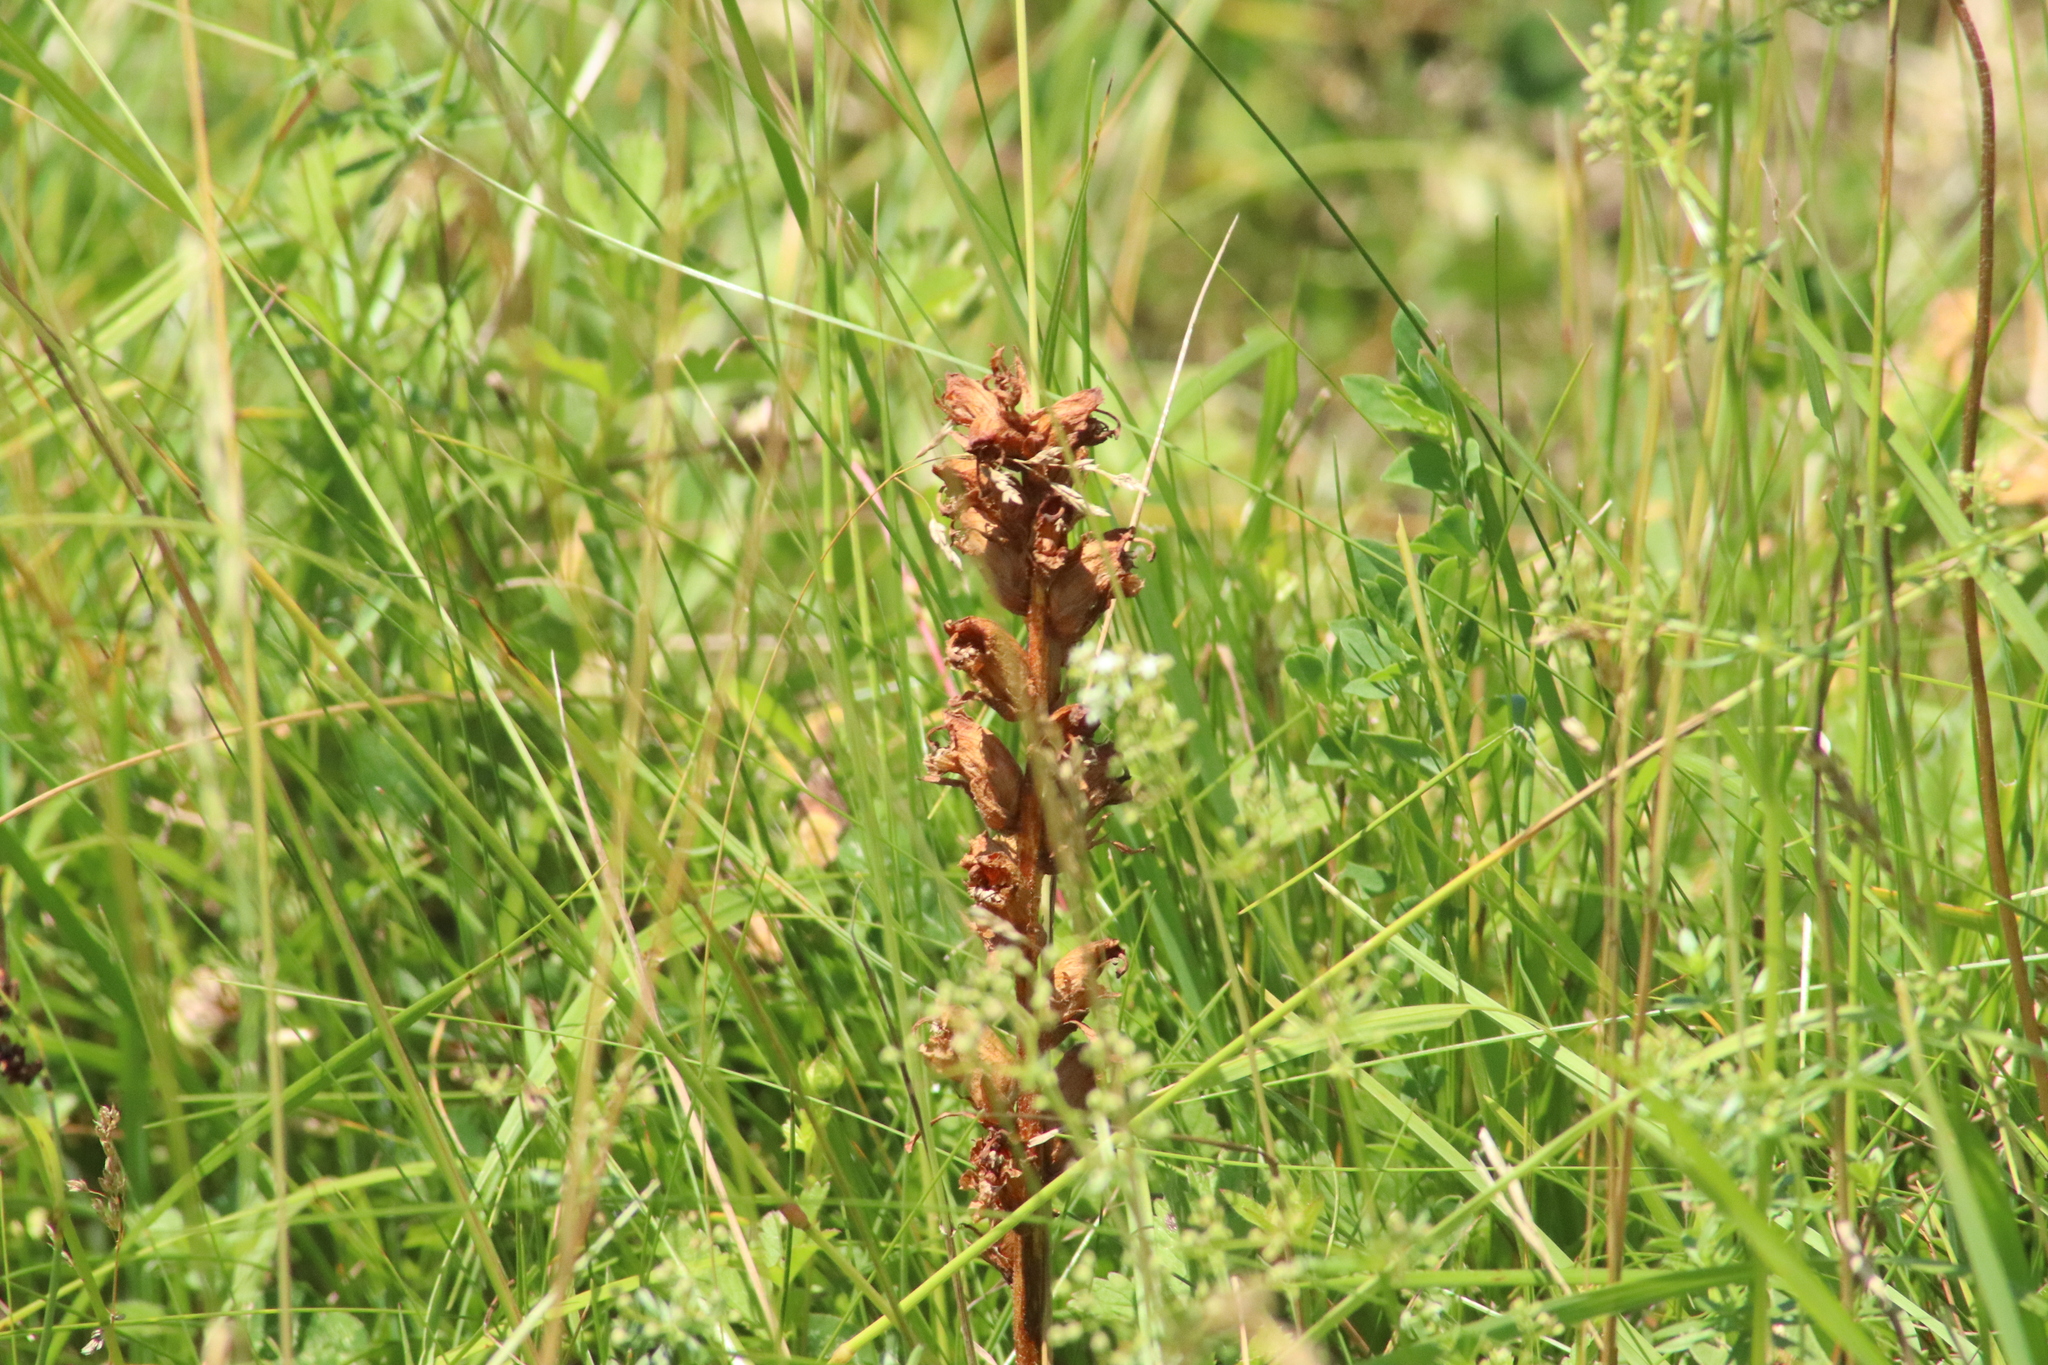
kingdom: Plantae
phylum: Tracheophyta
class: Magnoliopsida
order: Lamiales
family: Orobanchaceae
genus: Orobanche
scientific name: Orobanche gracilis
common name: Slender broomrape
